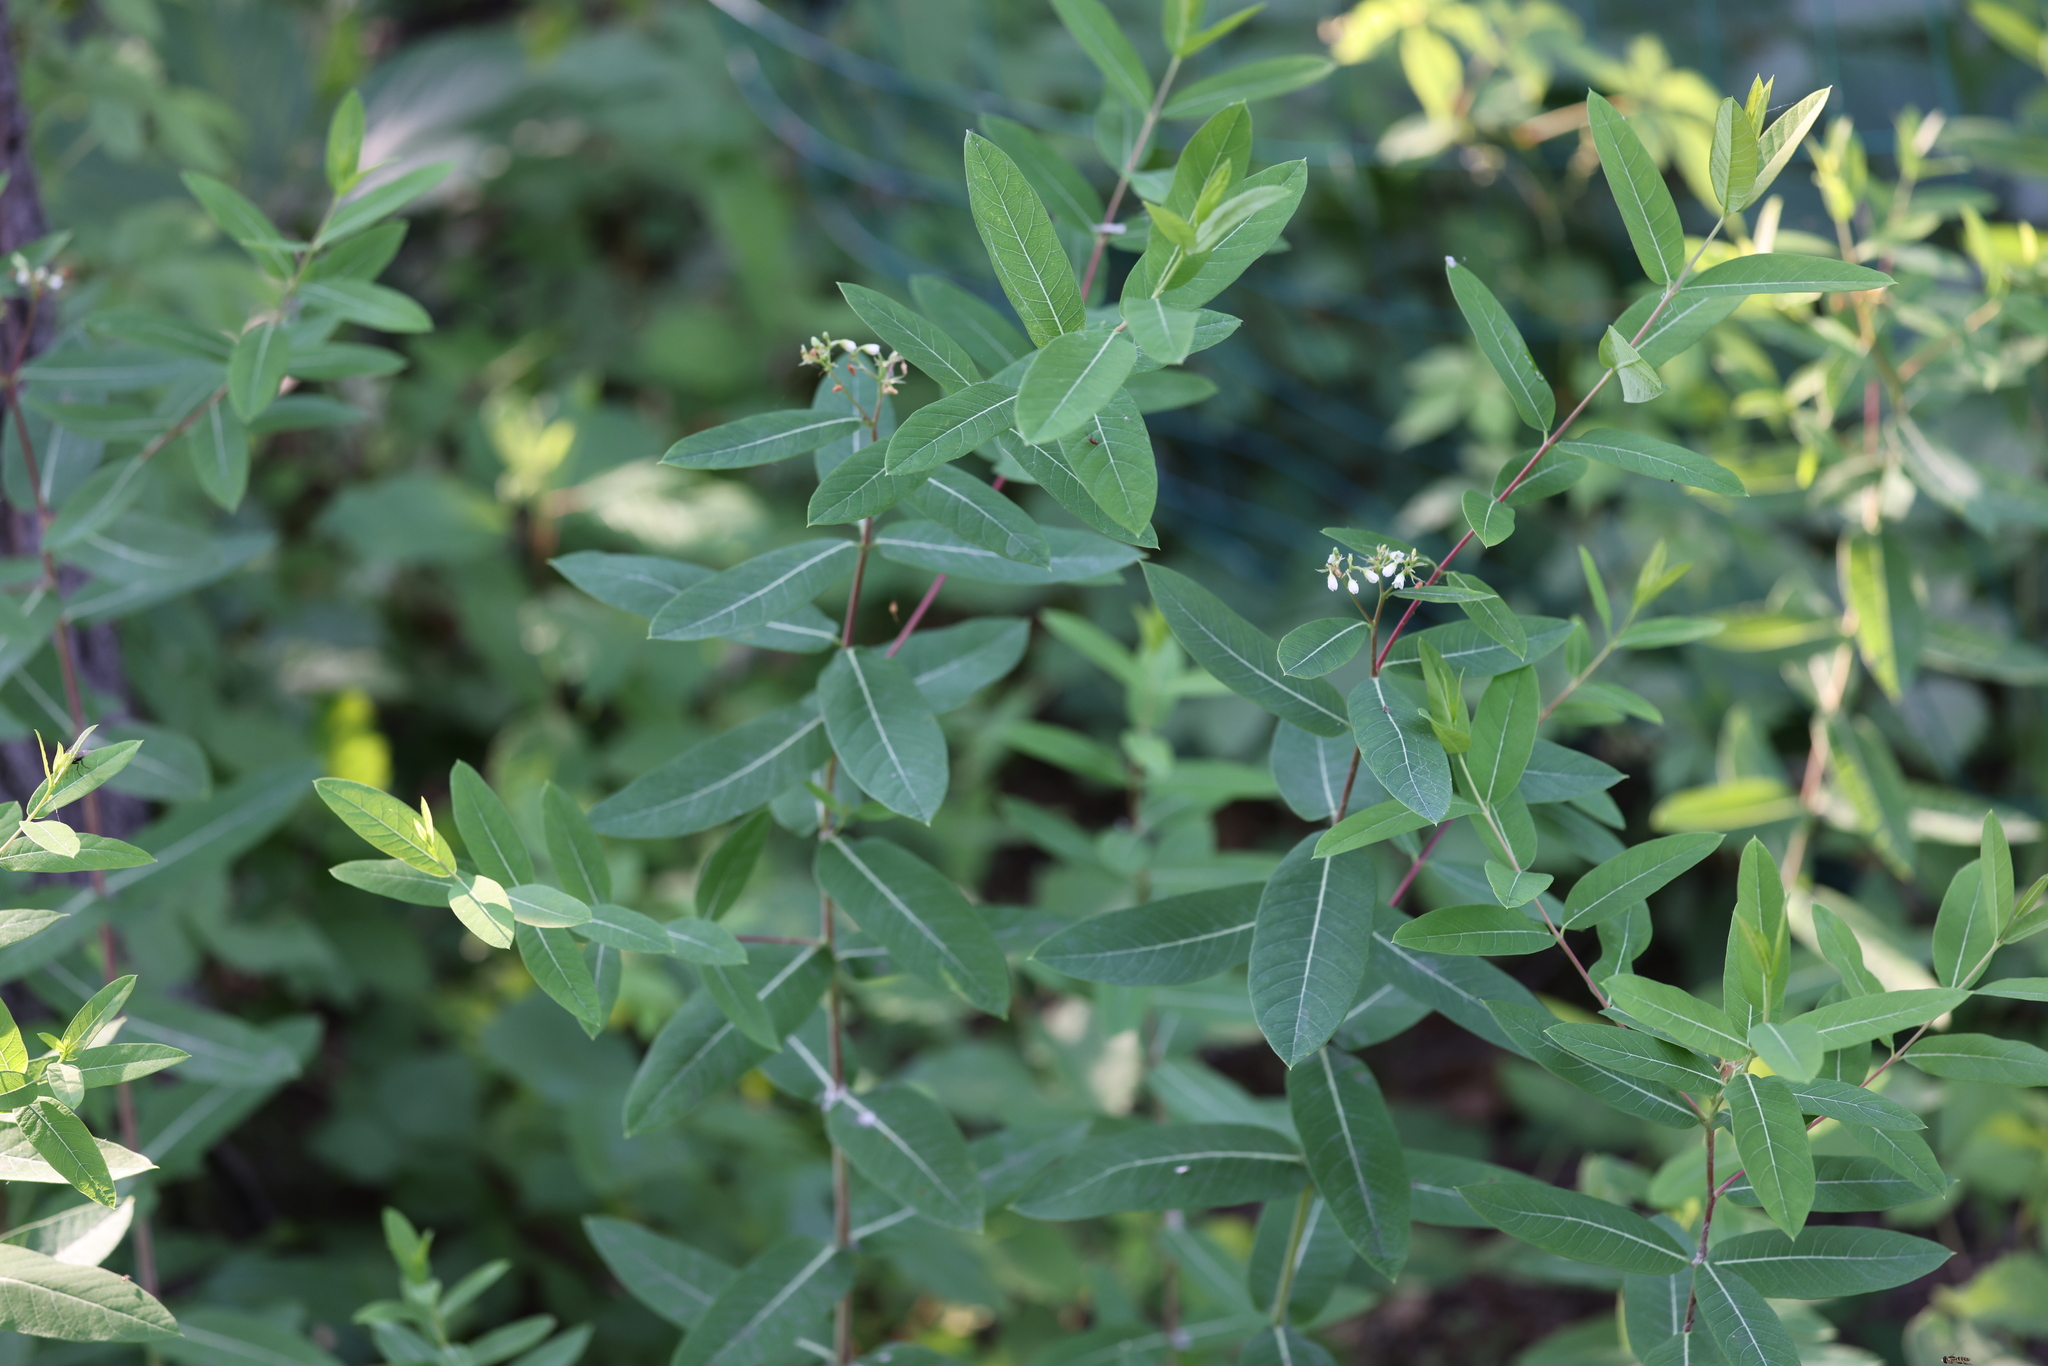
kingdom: Plantae
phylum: Tracheophyta
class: Magnoliopsida
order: Gentianales
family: Apocynaceae
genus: Apocynum
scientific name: Apocynum cannabinum
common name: Hemp dogbane
